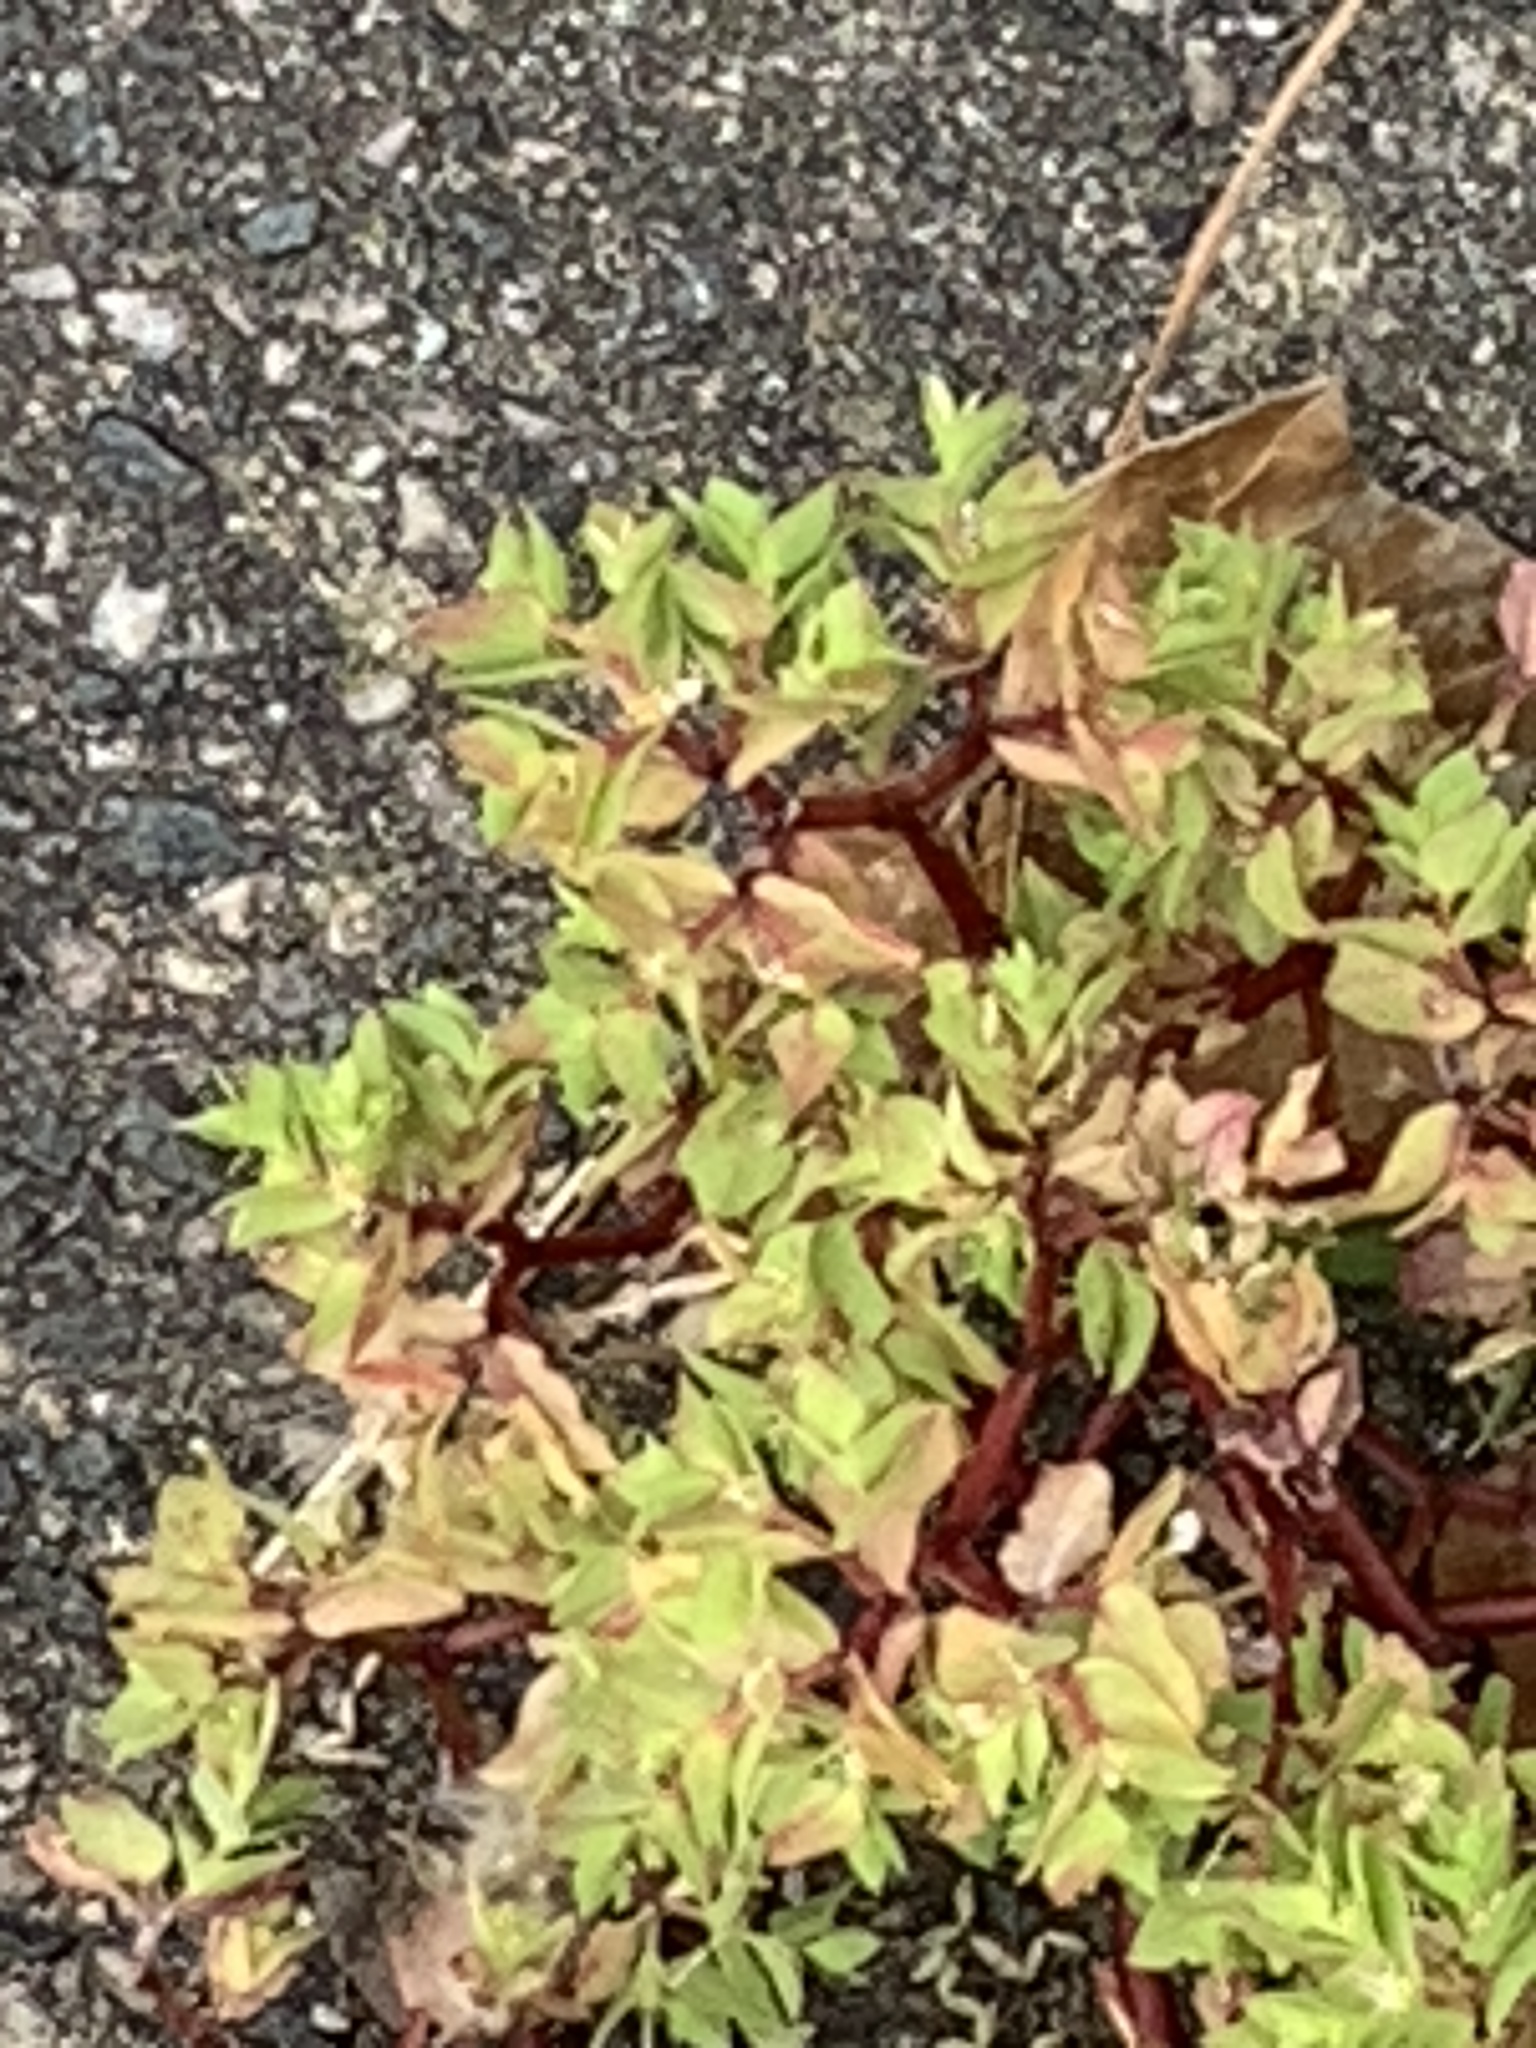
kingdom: Plantae
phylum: Tracheophyta
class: Magnoliopsida
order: Malpighiales
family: Euphorbiaceae
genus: Euphorbia
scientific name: Euphorbia peplus
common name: Petty spurge
